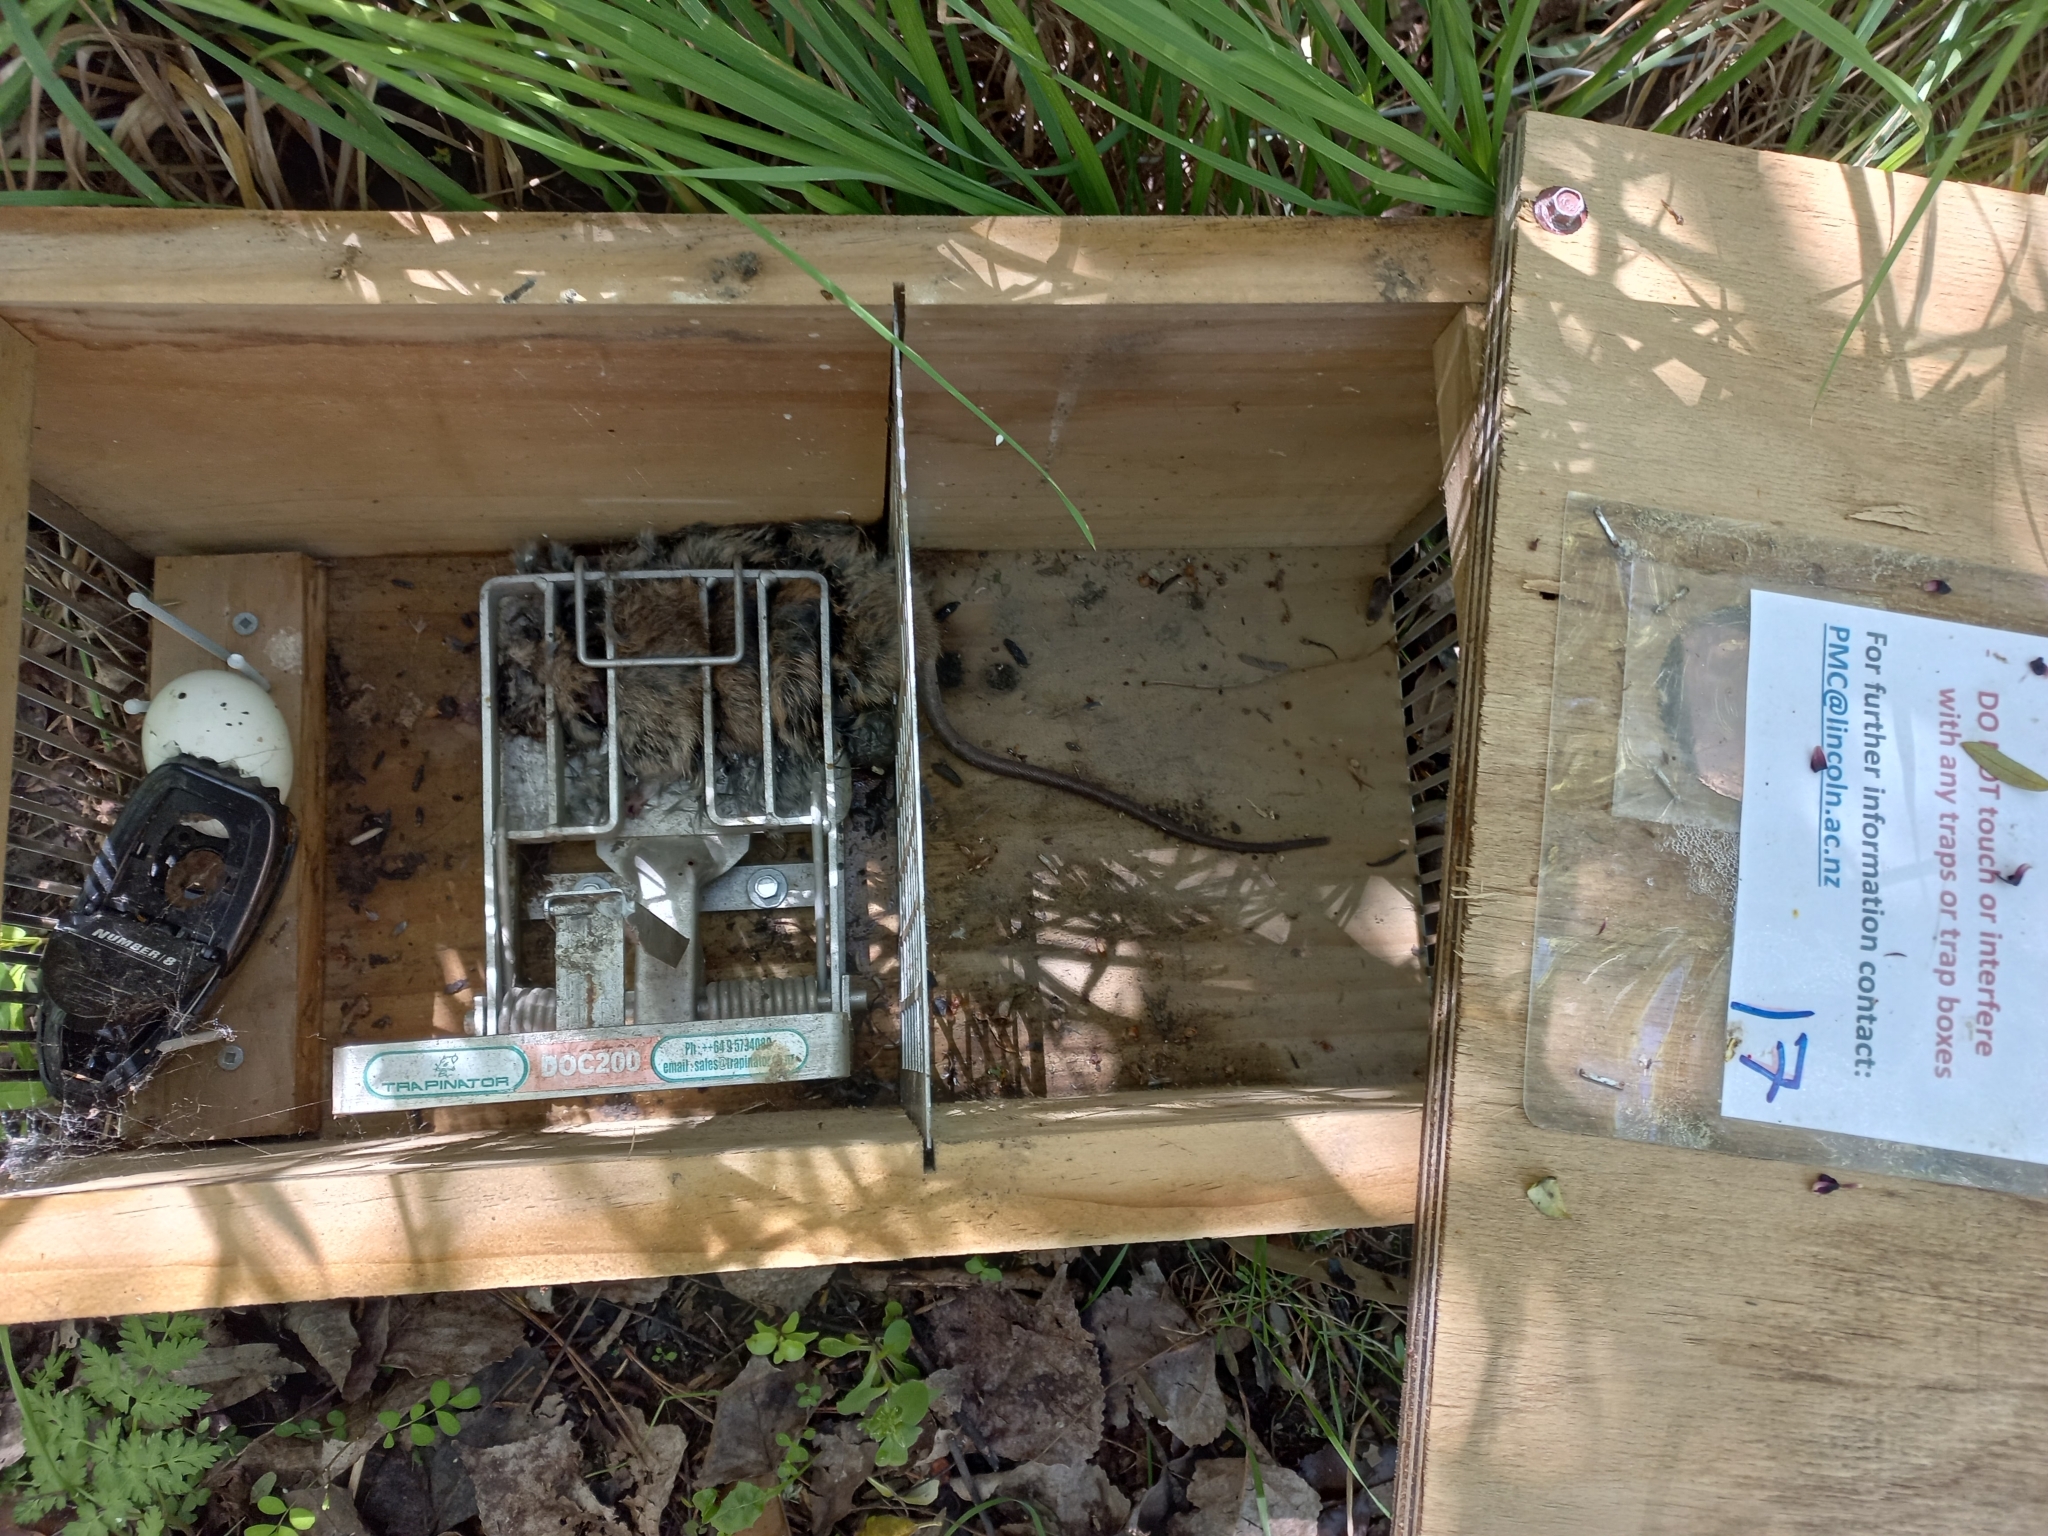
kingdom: Animalia
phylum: Chordata
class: Mammalia
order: Rodentia
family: Muridae
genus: Rattus
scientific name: Rattus rattus
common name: Black rat
